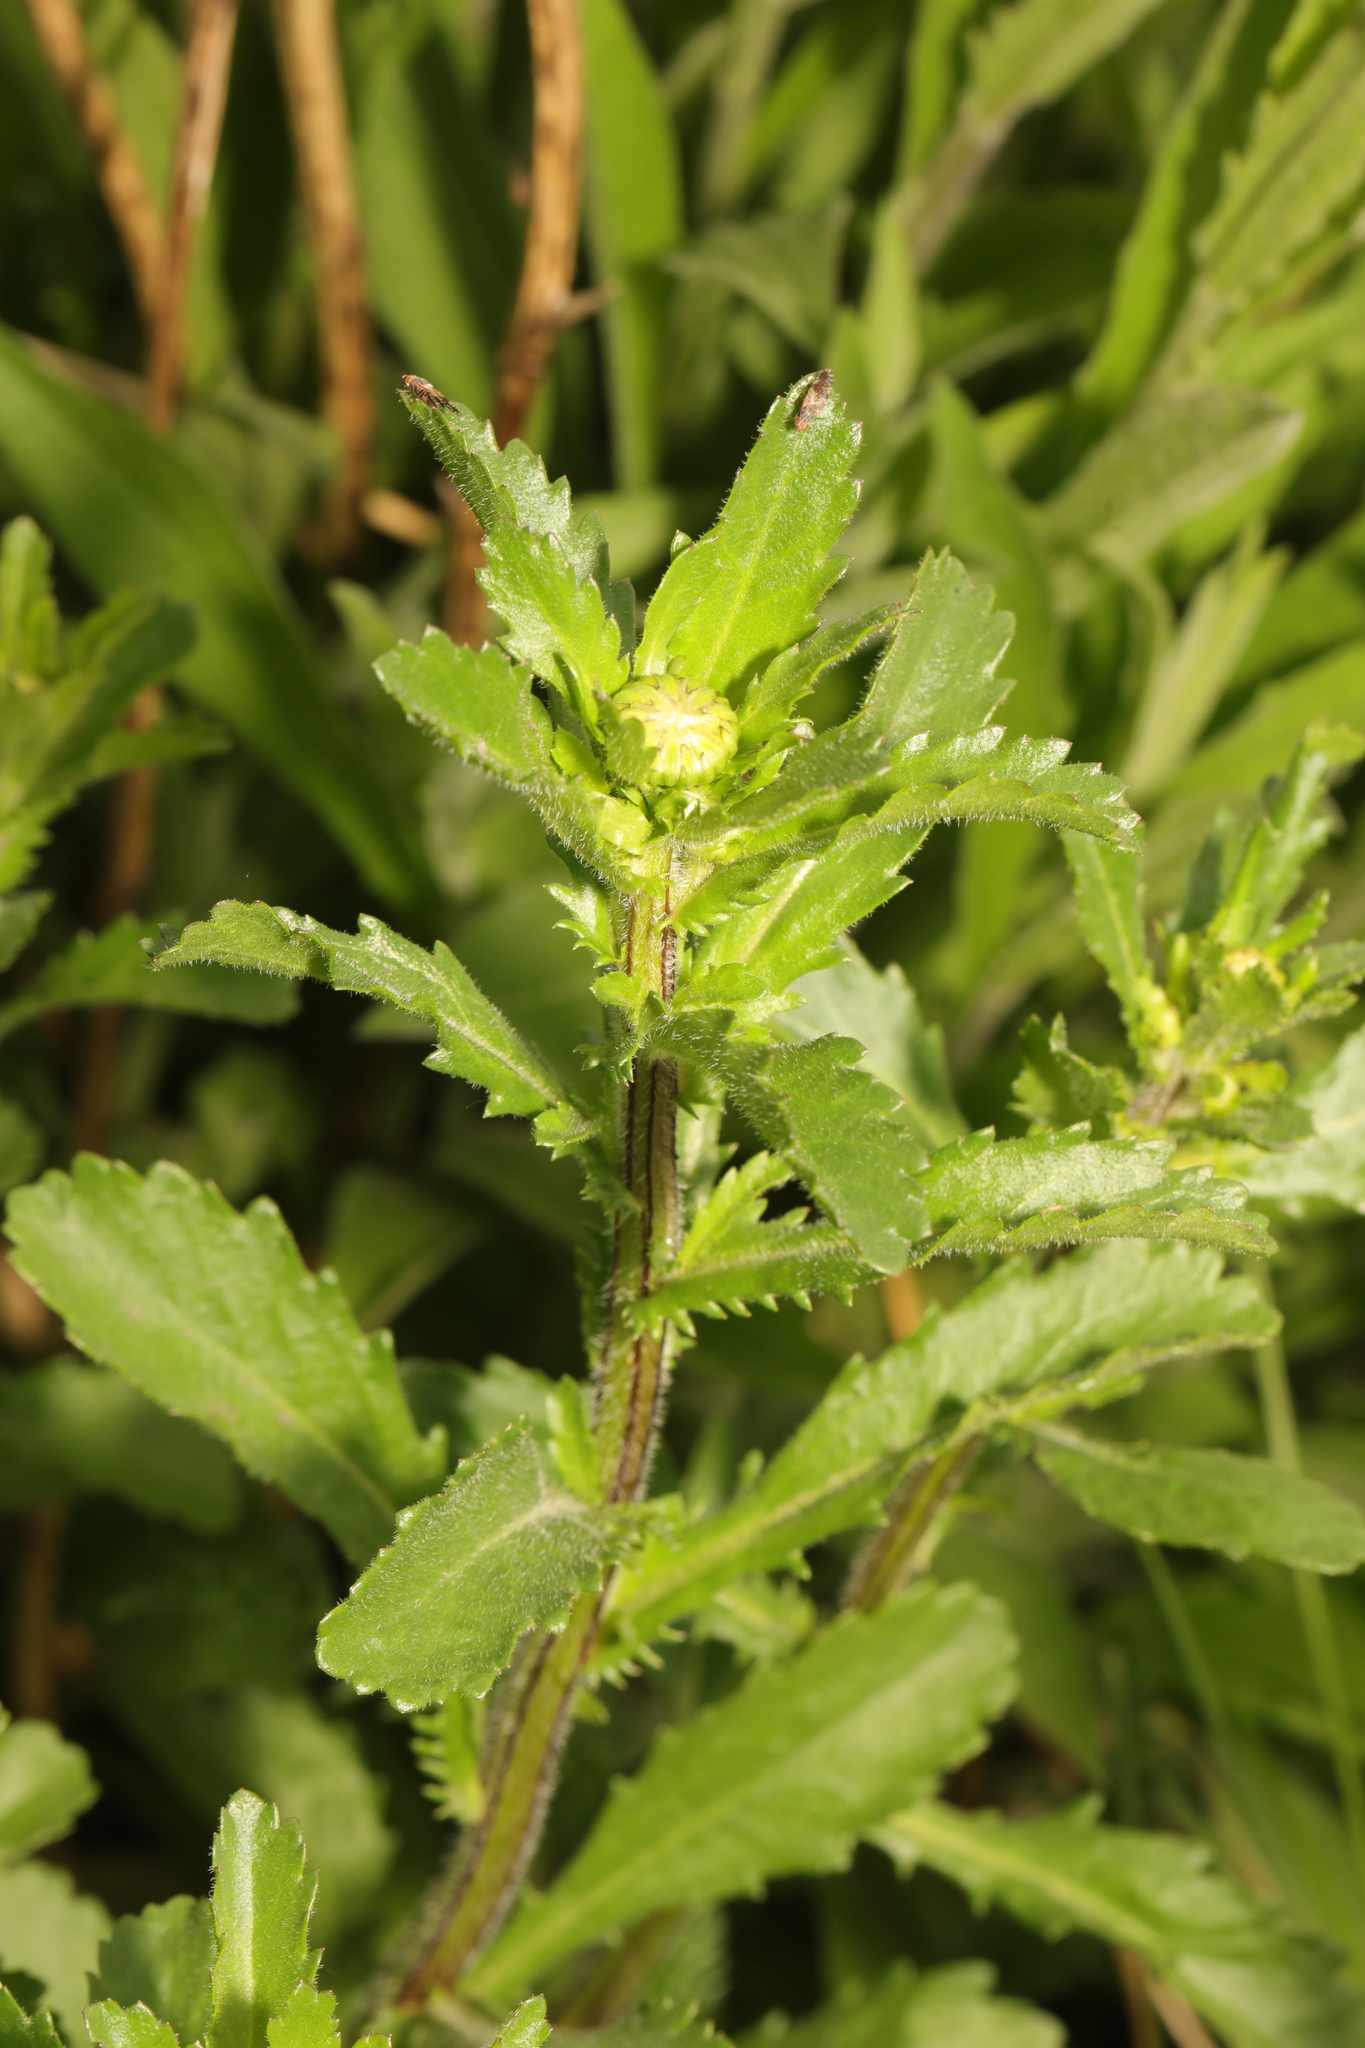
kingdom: Plantae
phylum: Tracheophyta
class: Magnoliopsida
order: Asterales
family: Asteraceae
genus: Leucanthemum
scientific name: Leucanthemum vulgare
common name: Oxeye daisy
